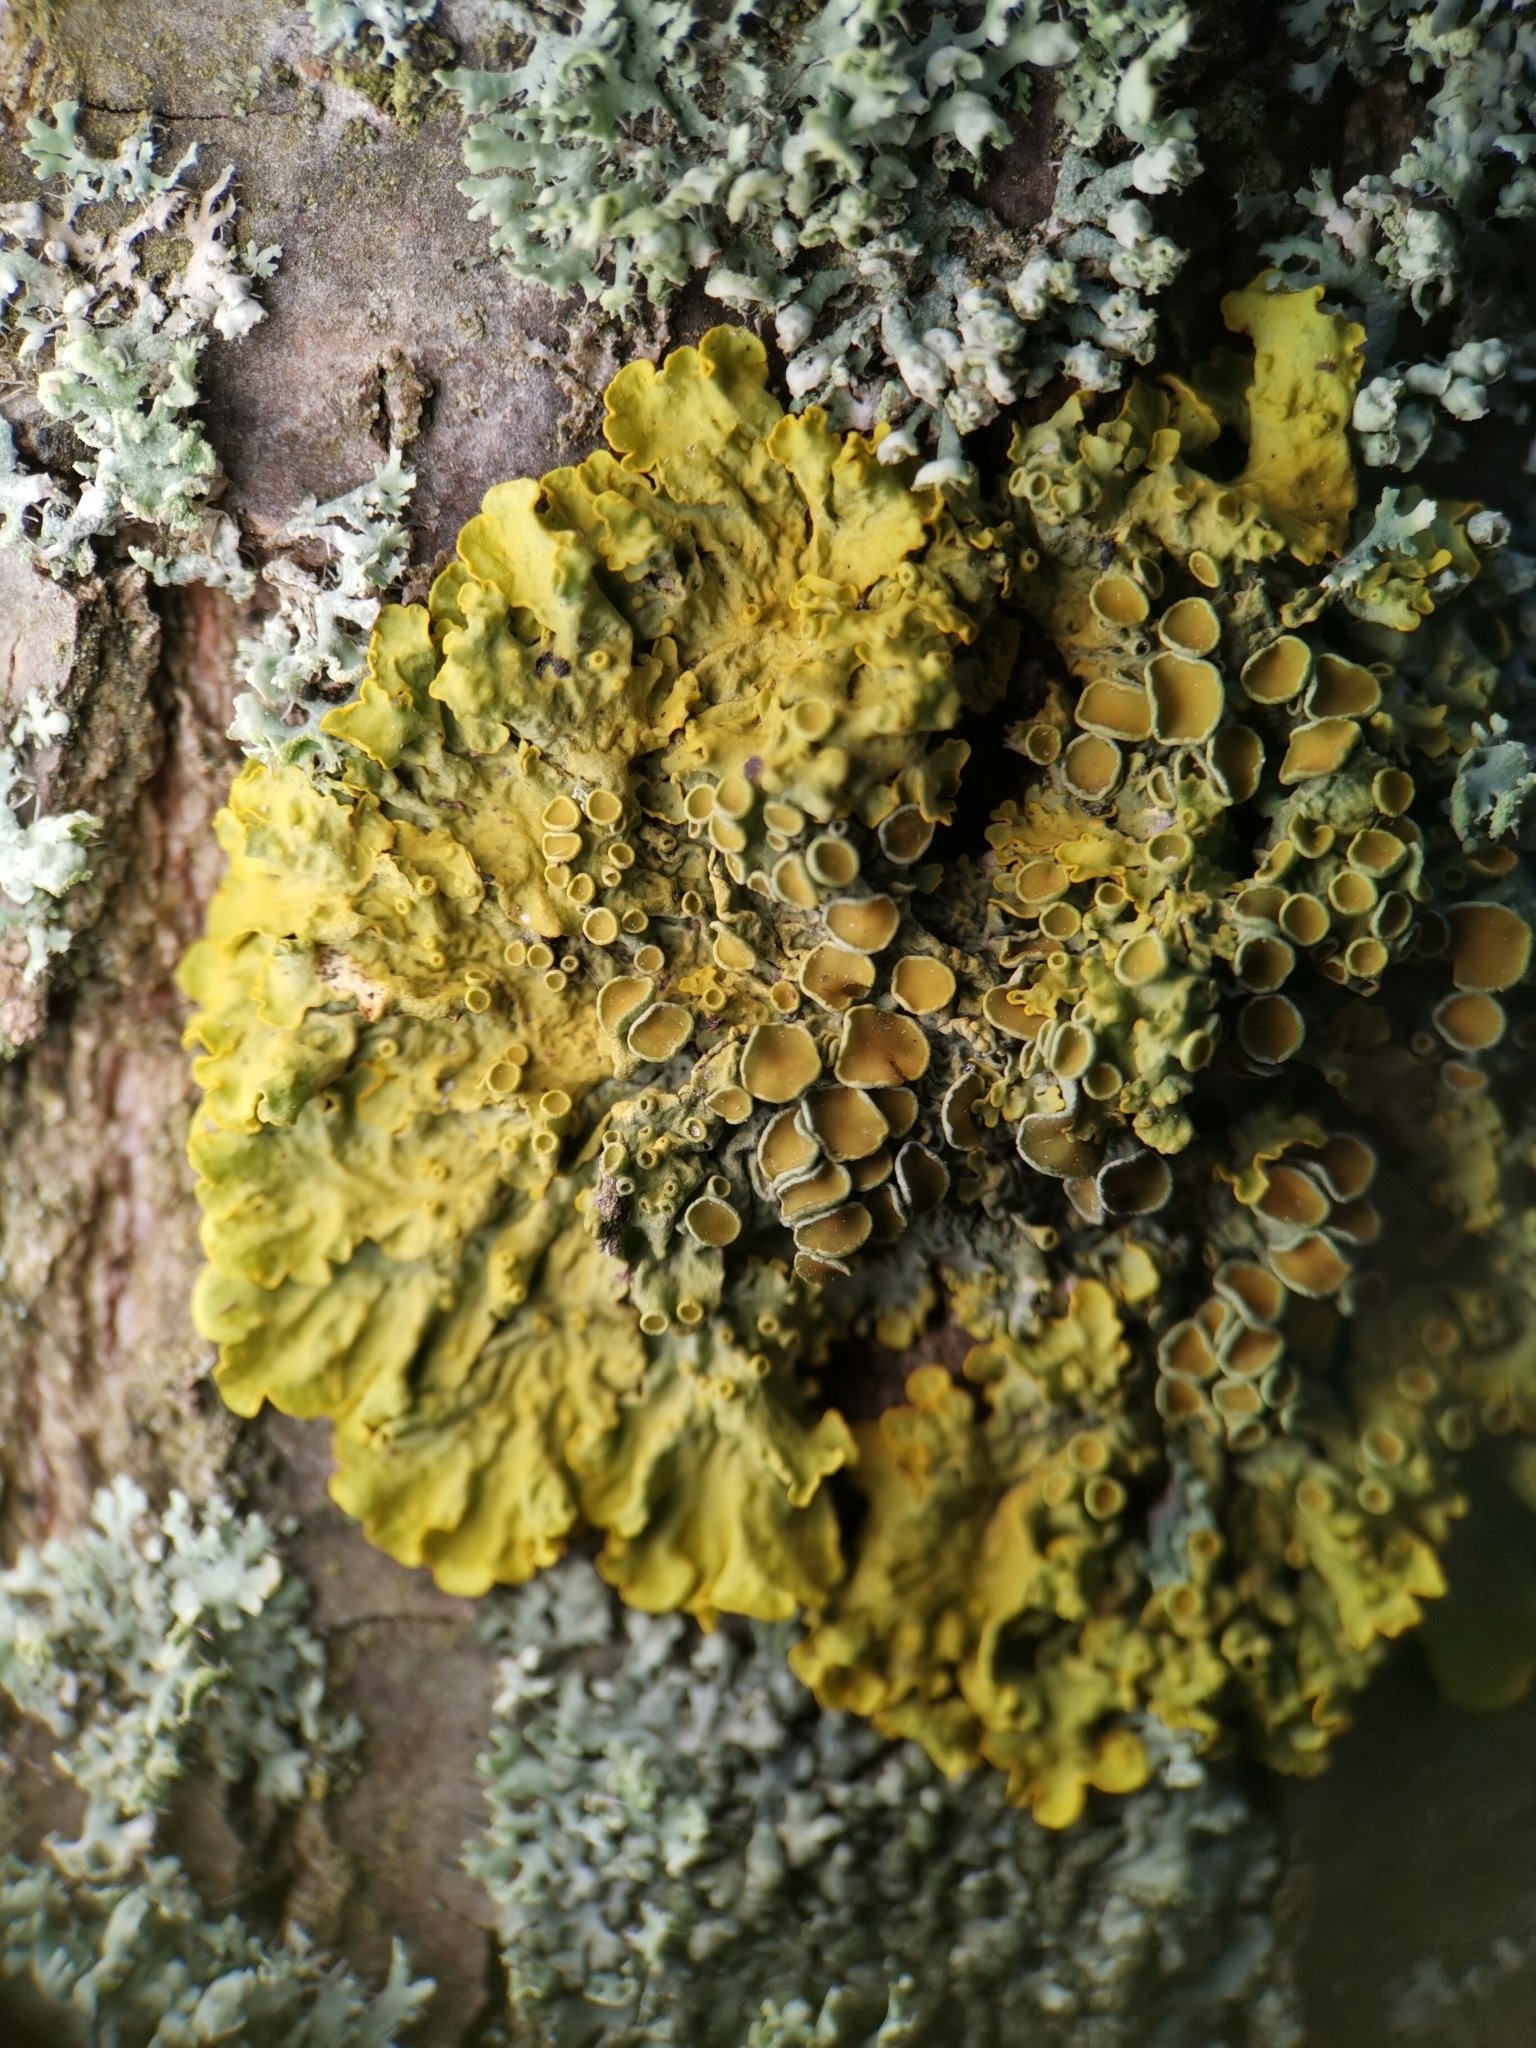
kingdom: Fungi
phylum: Ascomycota
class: Lecanoromycetes
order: Teloschistales
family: Teloschistaceae
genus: Xanthoria
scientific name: Xanthoria parietina
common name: Common orange lichen
